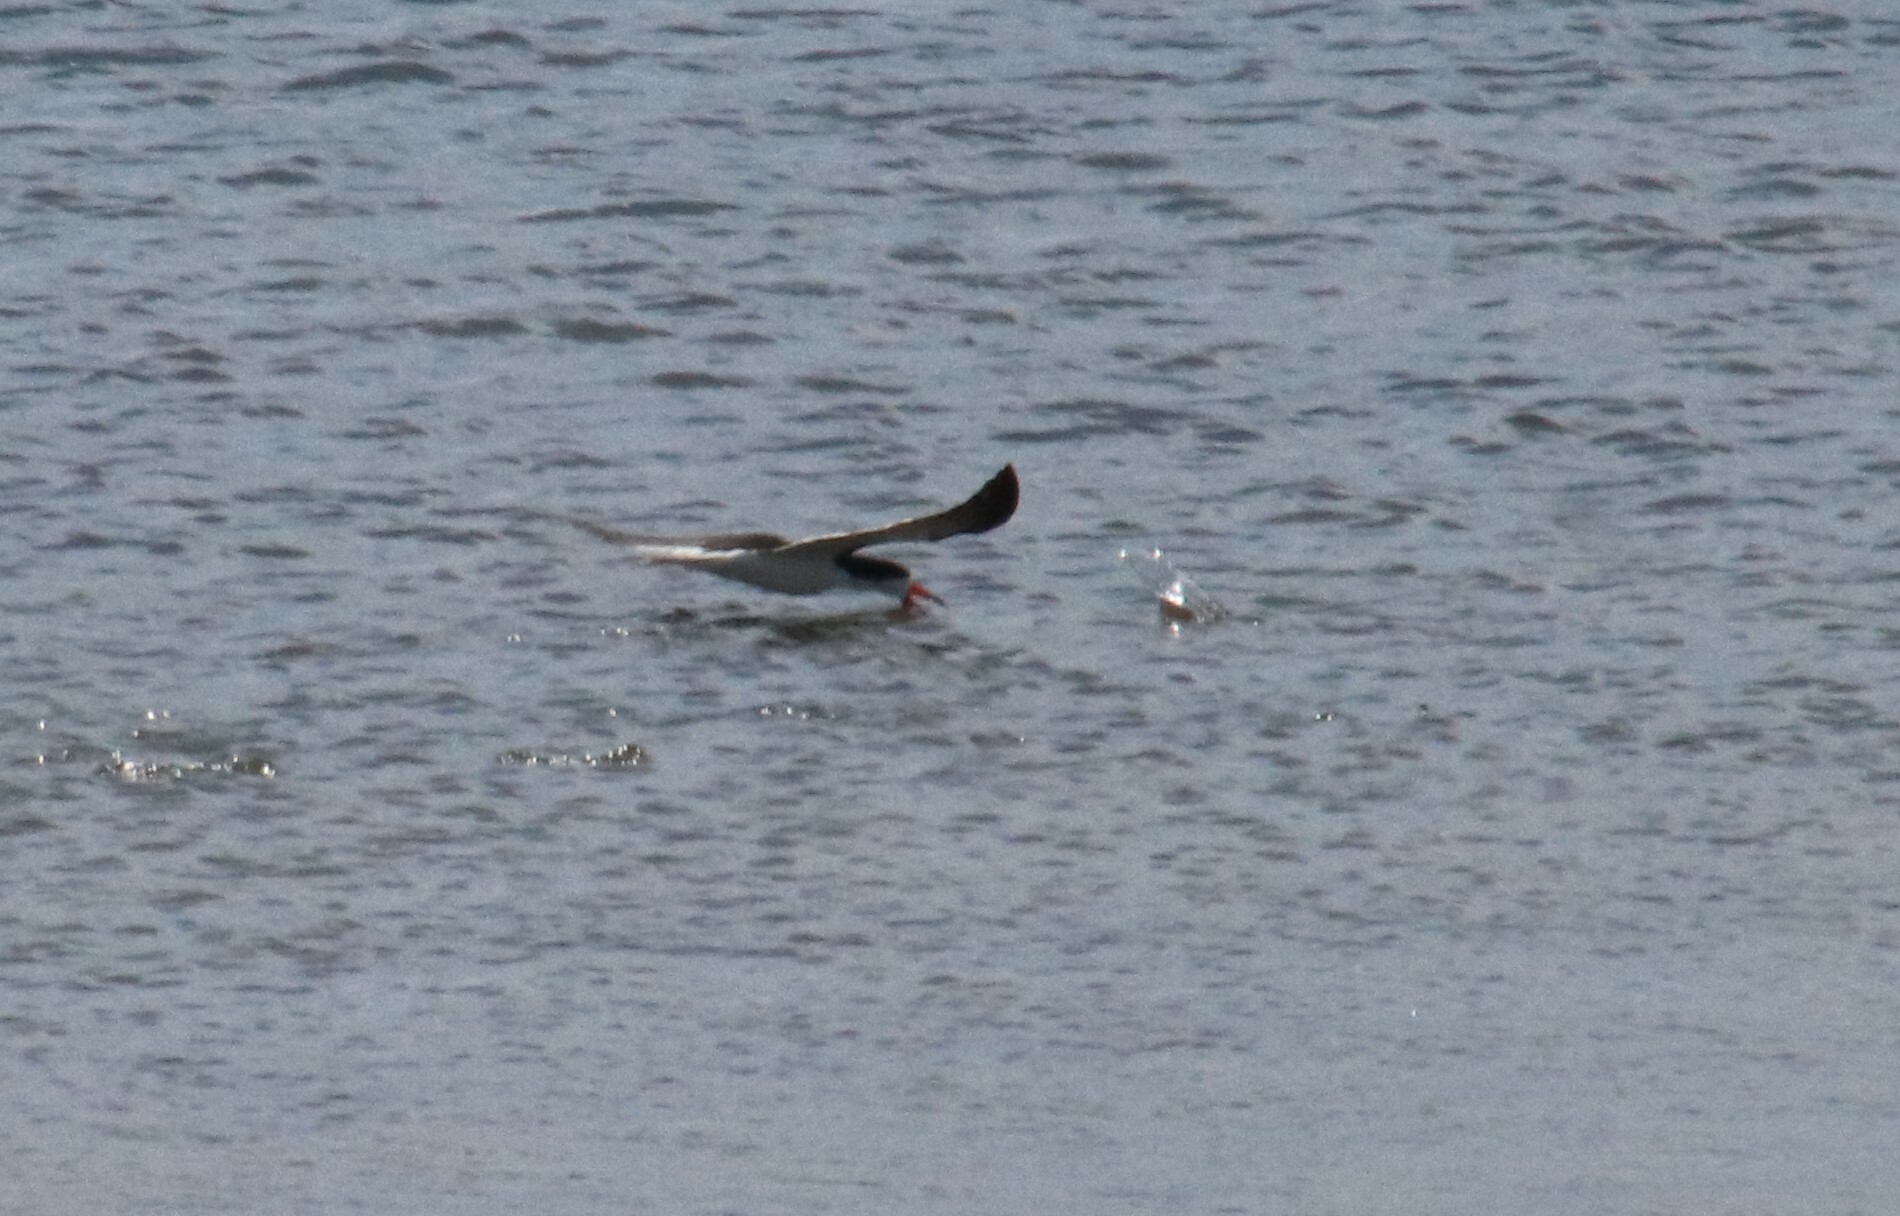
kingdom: Animalia
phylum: Chordata
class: Aves
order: Charadriiformes
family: Laridae
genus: Rynchops
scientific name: Rynchops niger
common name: Black skimmer
